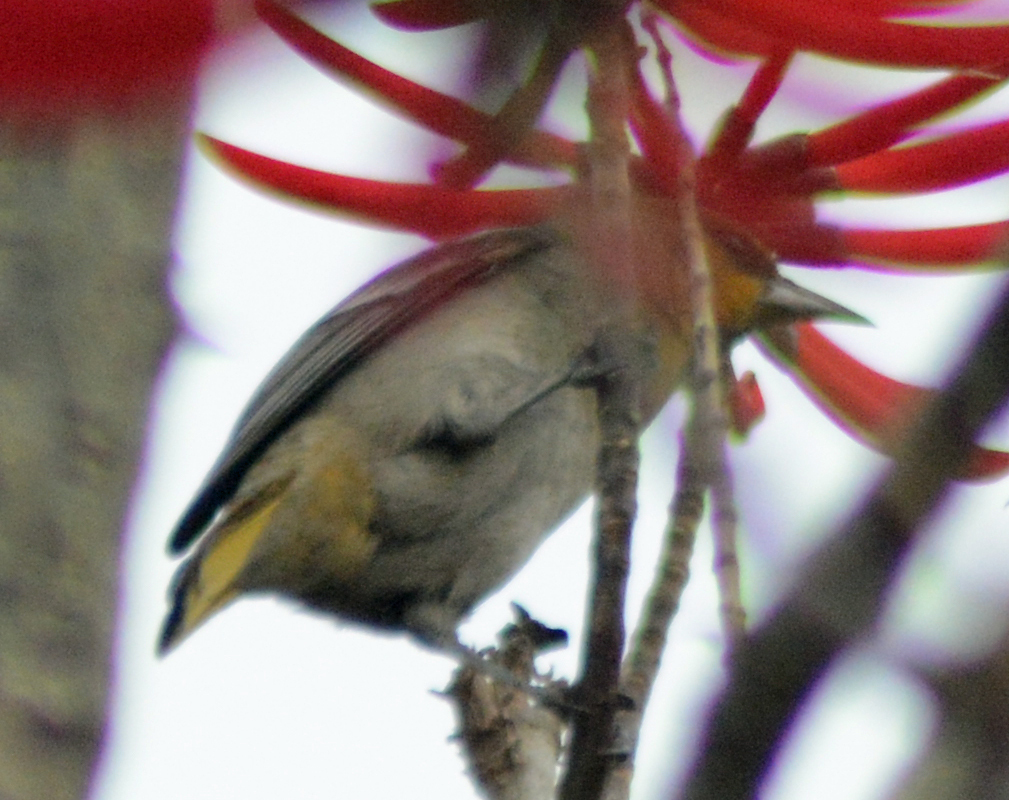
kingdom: Animalia
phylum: Chordata
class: Aves
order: Passeriformes
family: Icteridae
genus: Icterus
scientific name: Icterus abeillei
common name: Black-backed oriole
